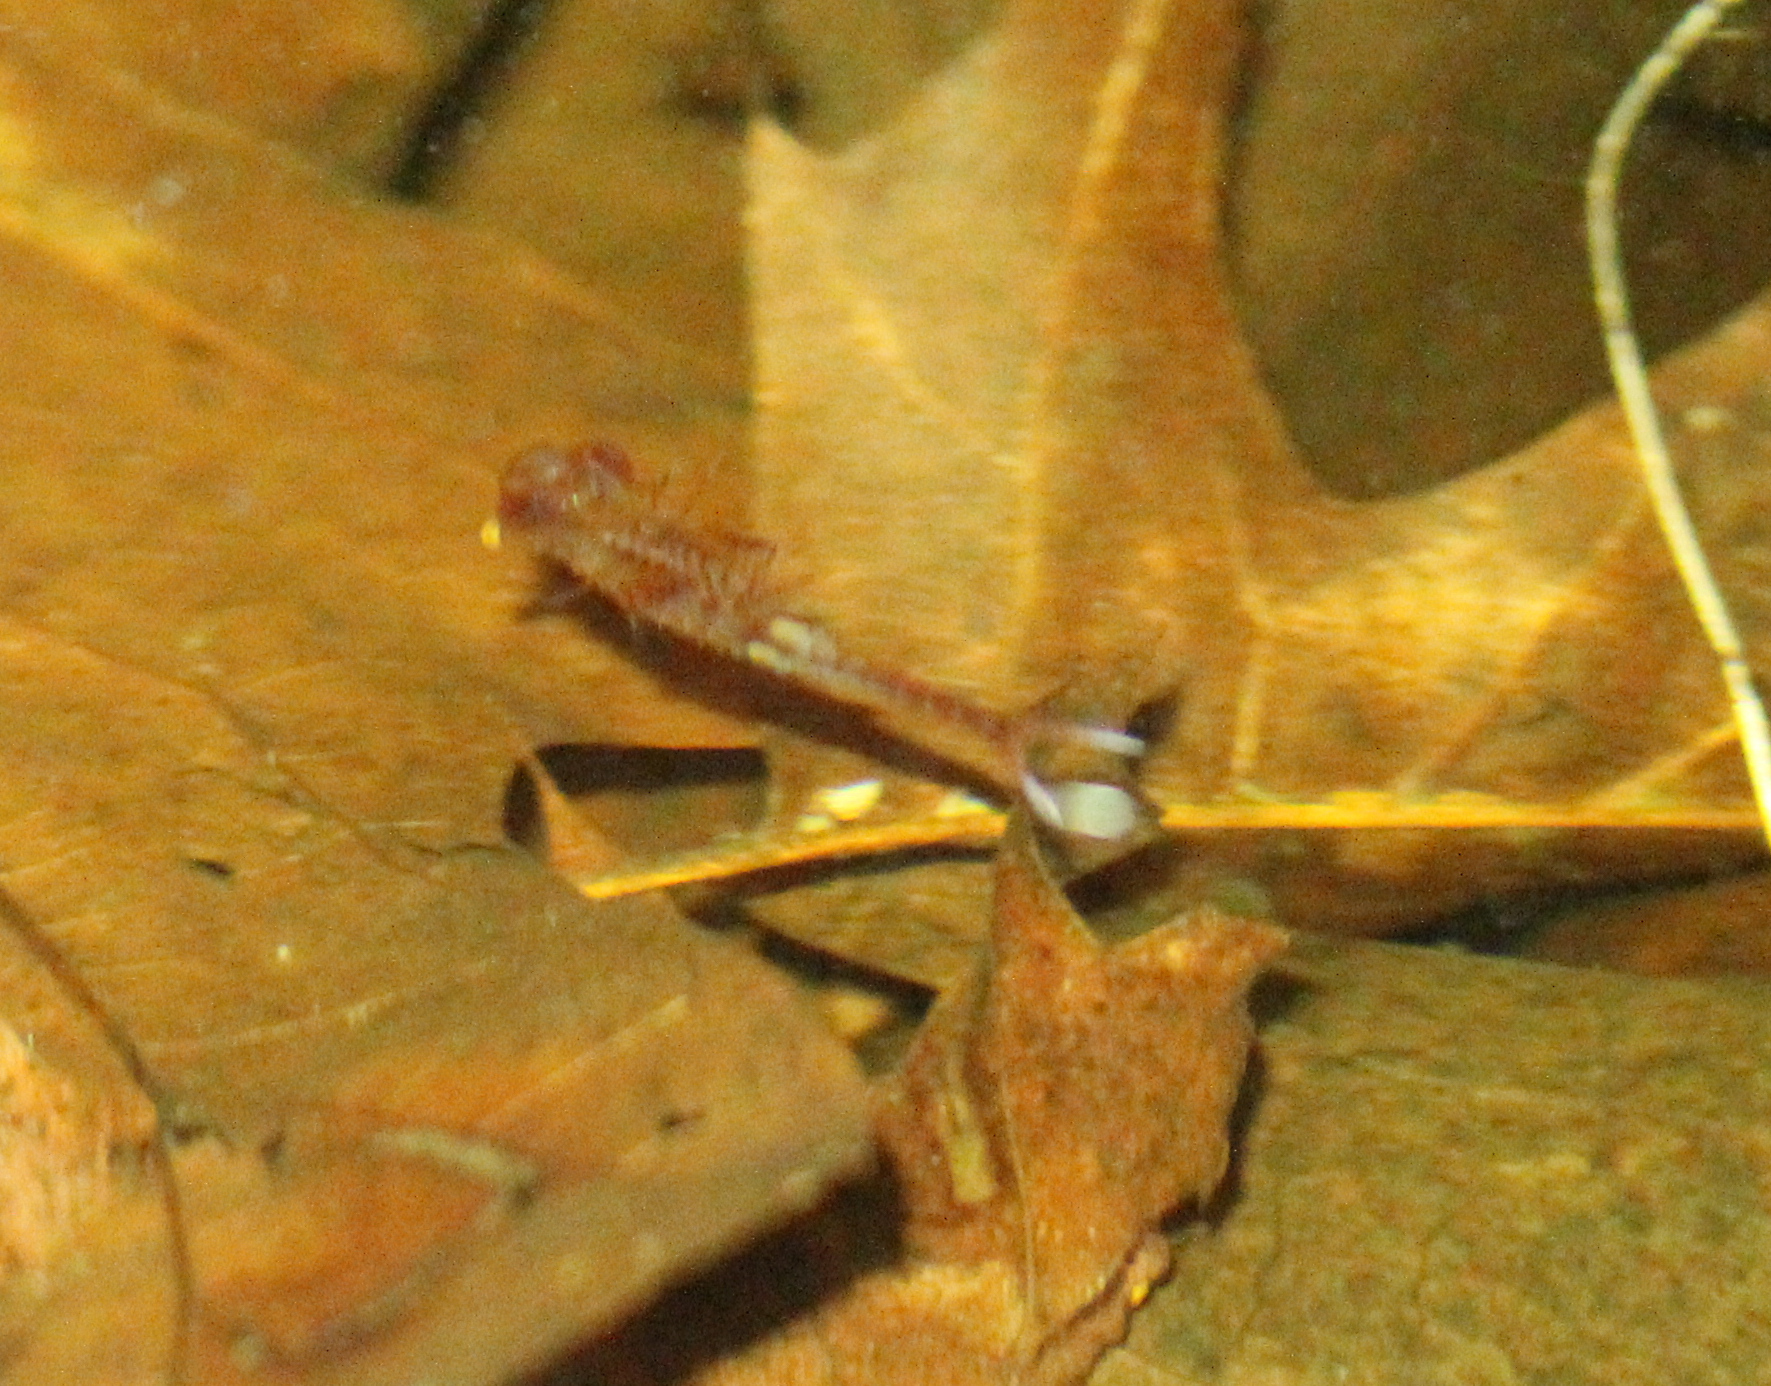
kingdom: Animalia
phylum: Arthropoda
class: Branchiopoda
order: Anostraca
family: Chirocephalidae
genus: Eubranchipus
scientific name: Eubranchipus vernalis
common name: Eastern fairy shrimp
